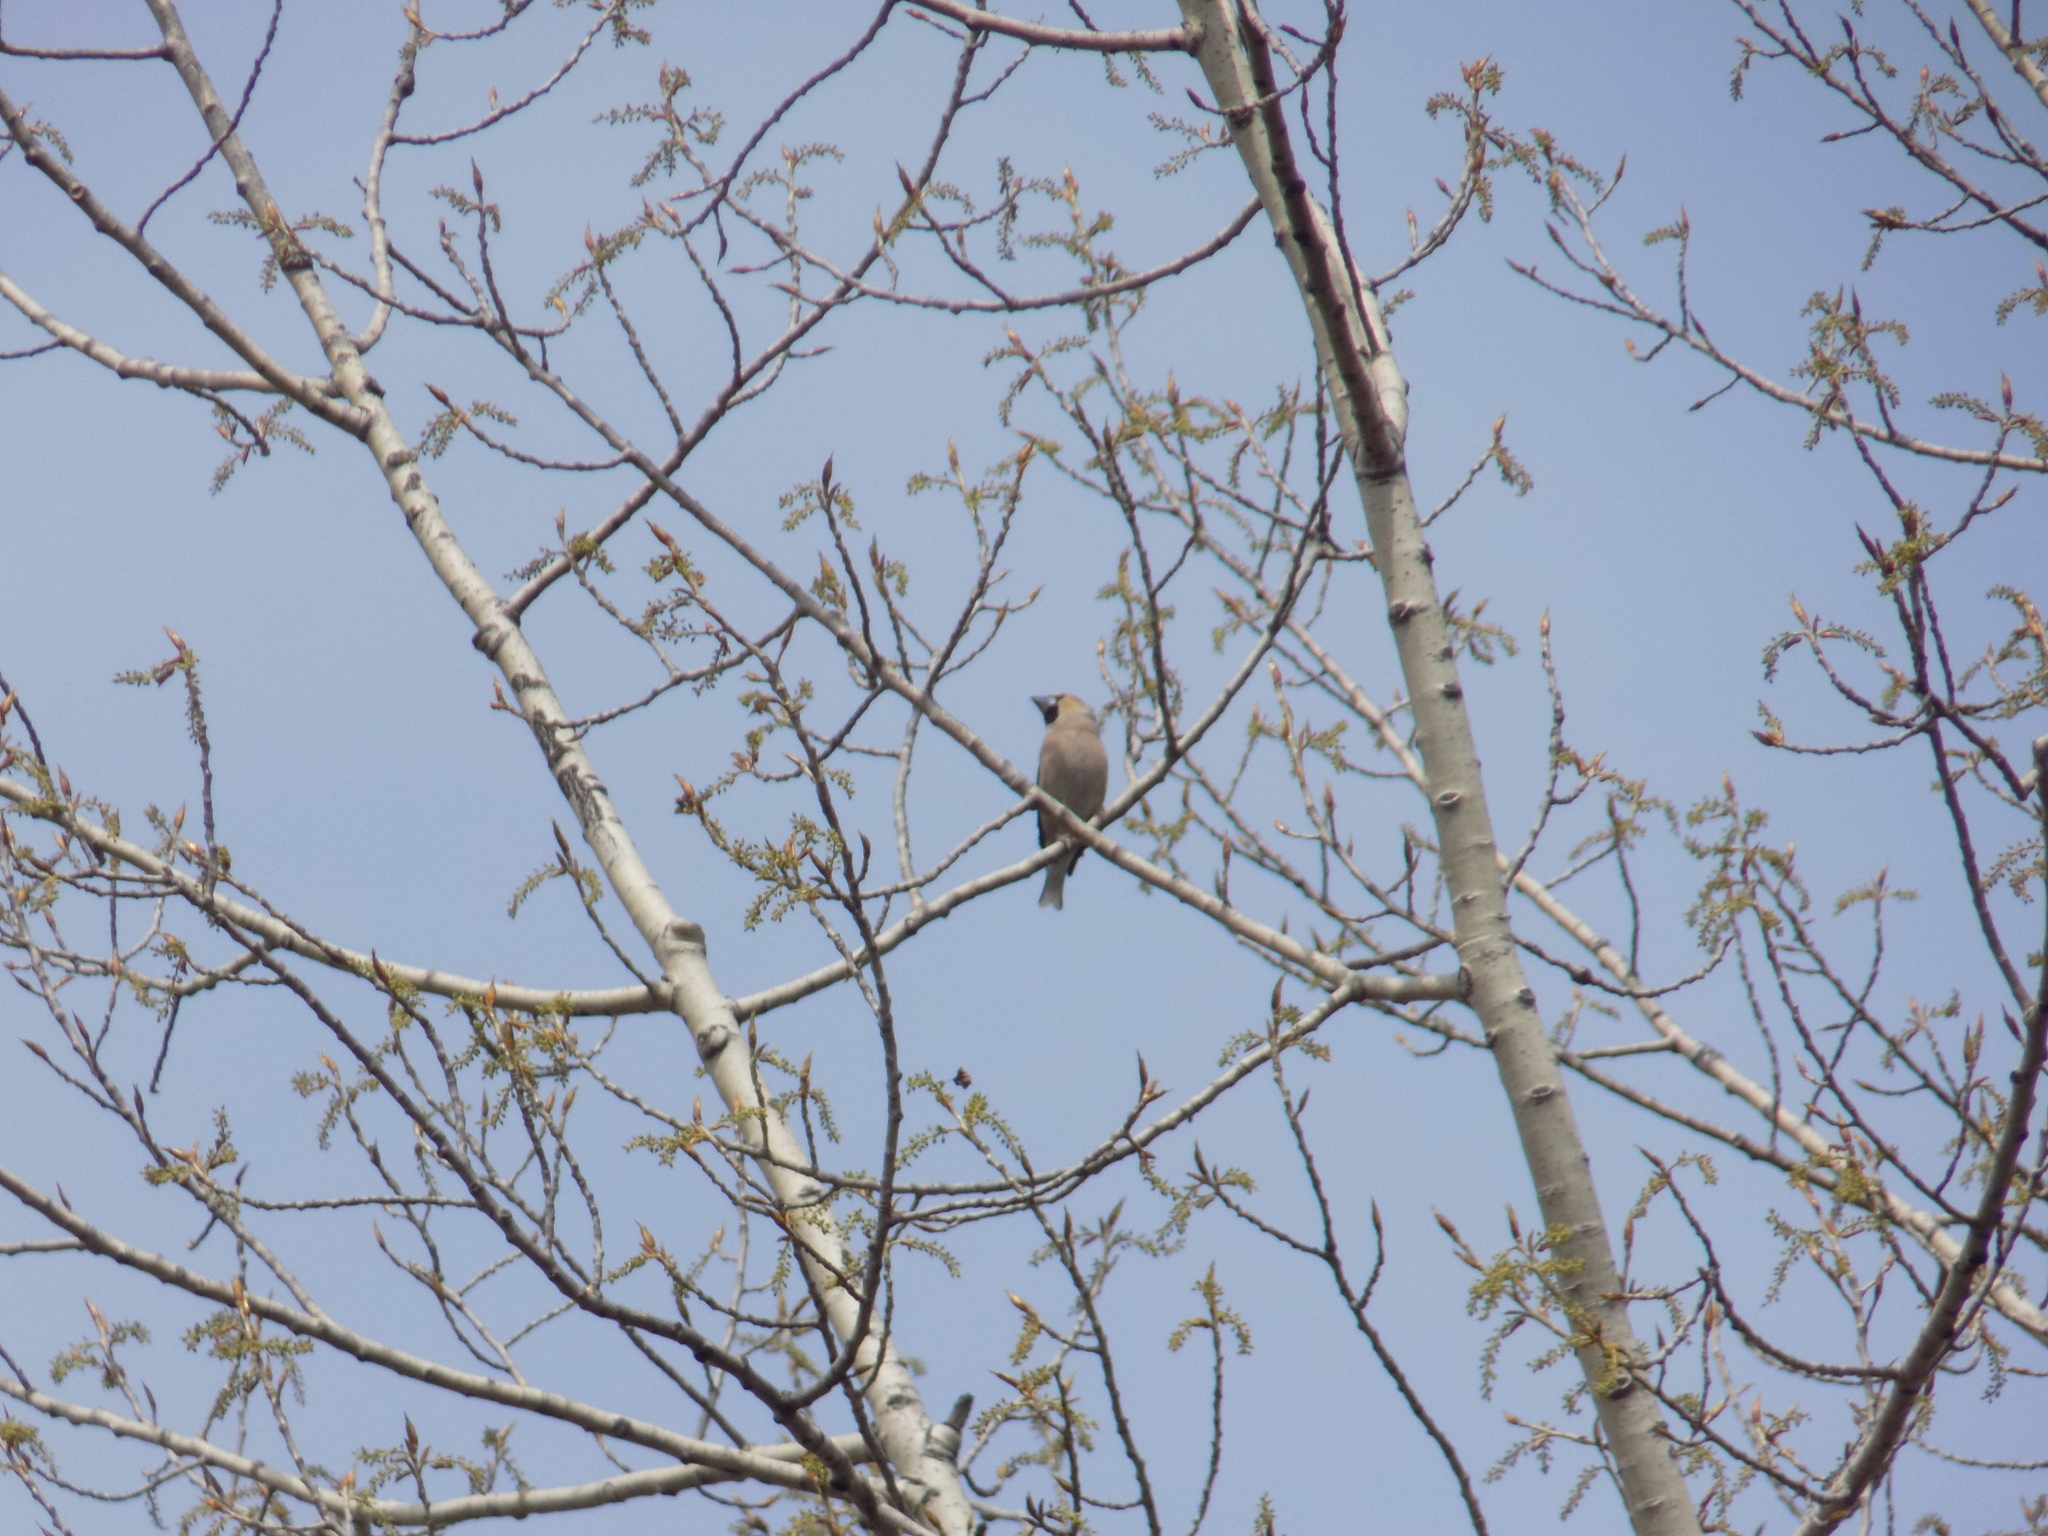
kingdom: Animalia
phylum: Chordata
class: Aves
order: Passeriformes
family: Fringillidae
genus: Coccothraustes
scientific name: Coccothraustes coccothraustes
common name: Hawfinch
